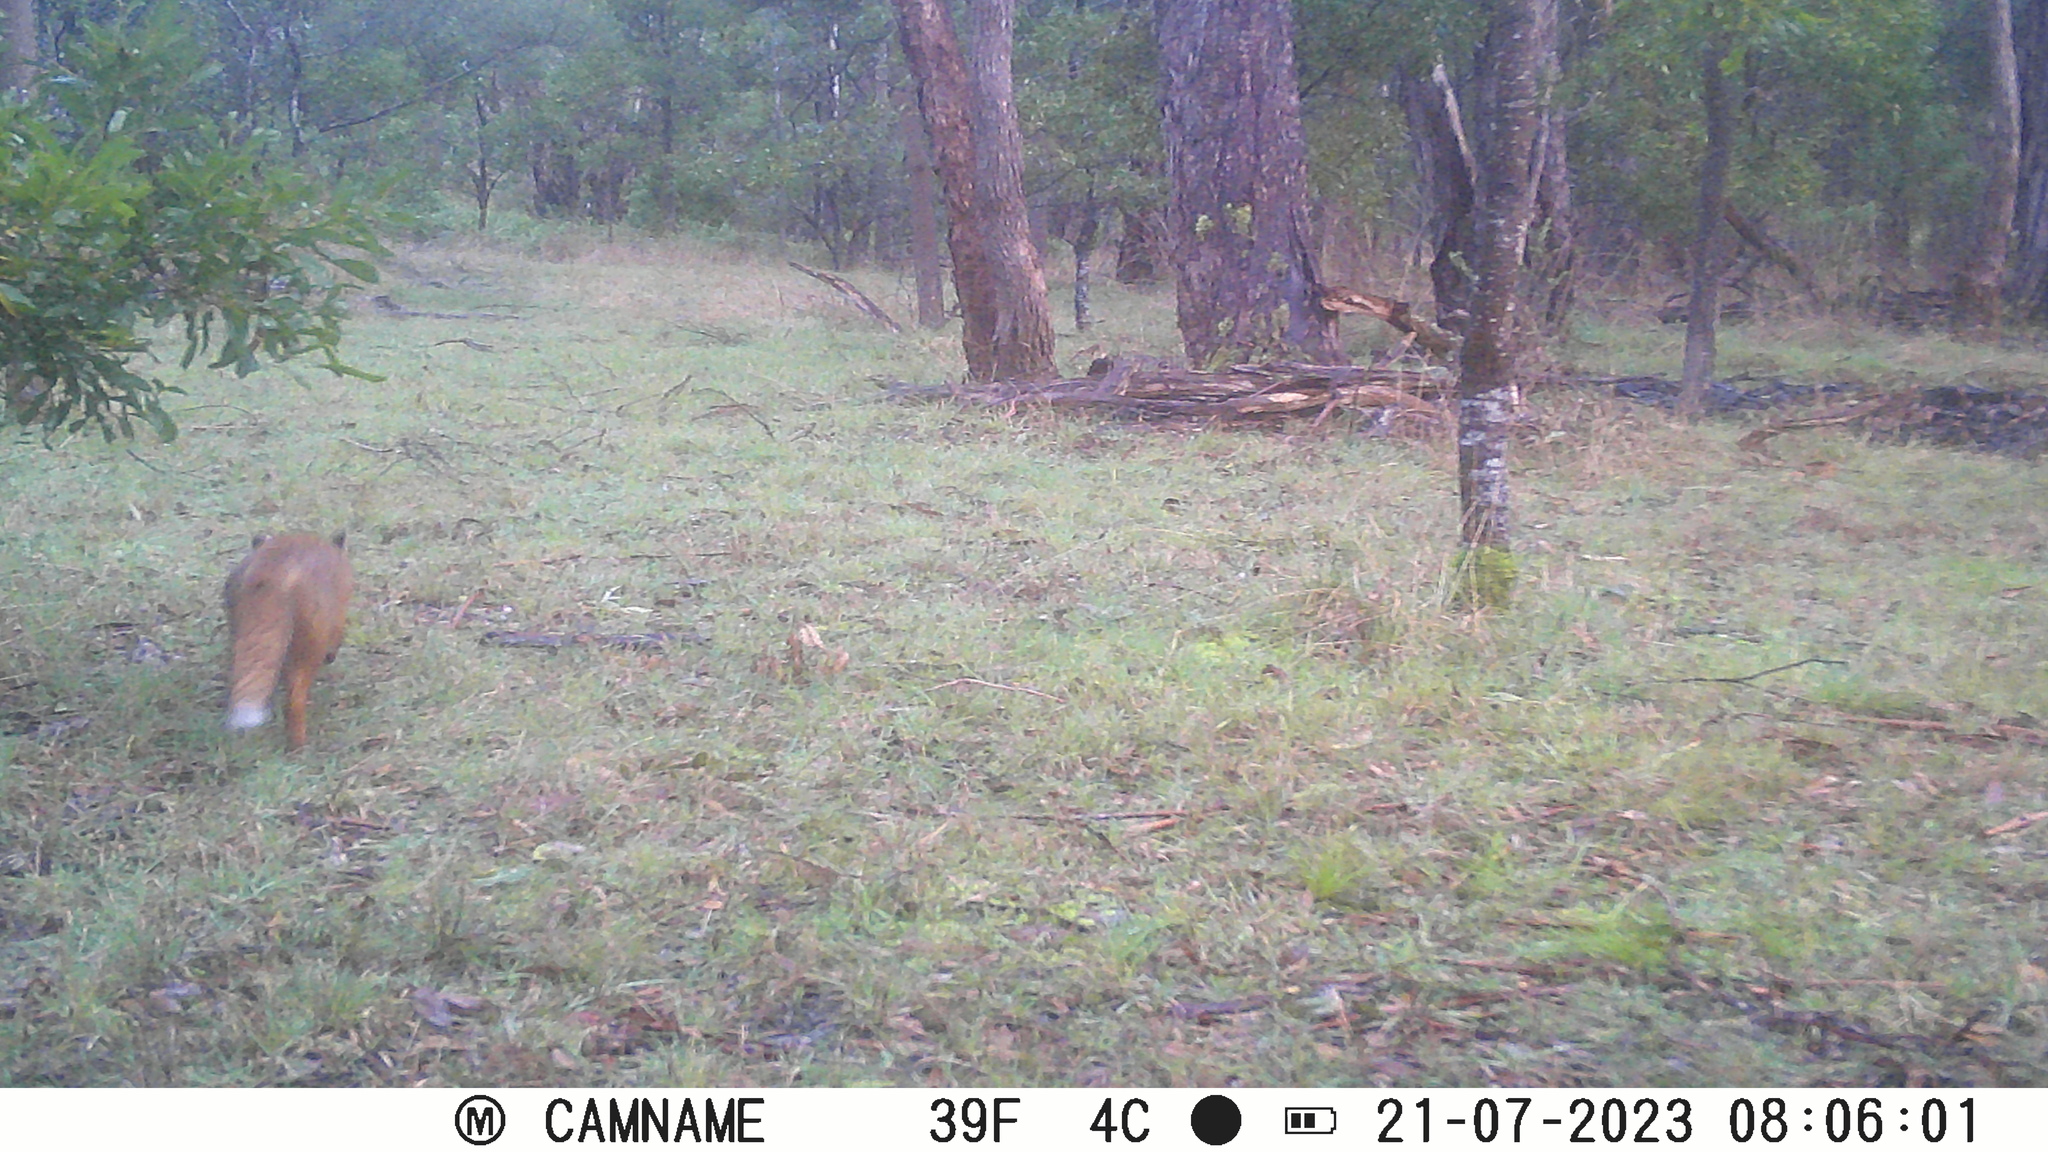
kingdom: Animalia
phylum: Chordata
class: Mammalia
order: Carnivora
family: Canidae
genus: Vulpes
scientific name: Vulpes vulpes
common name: Red fox
